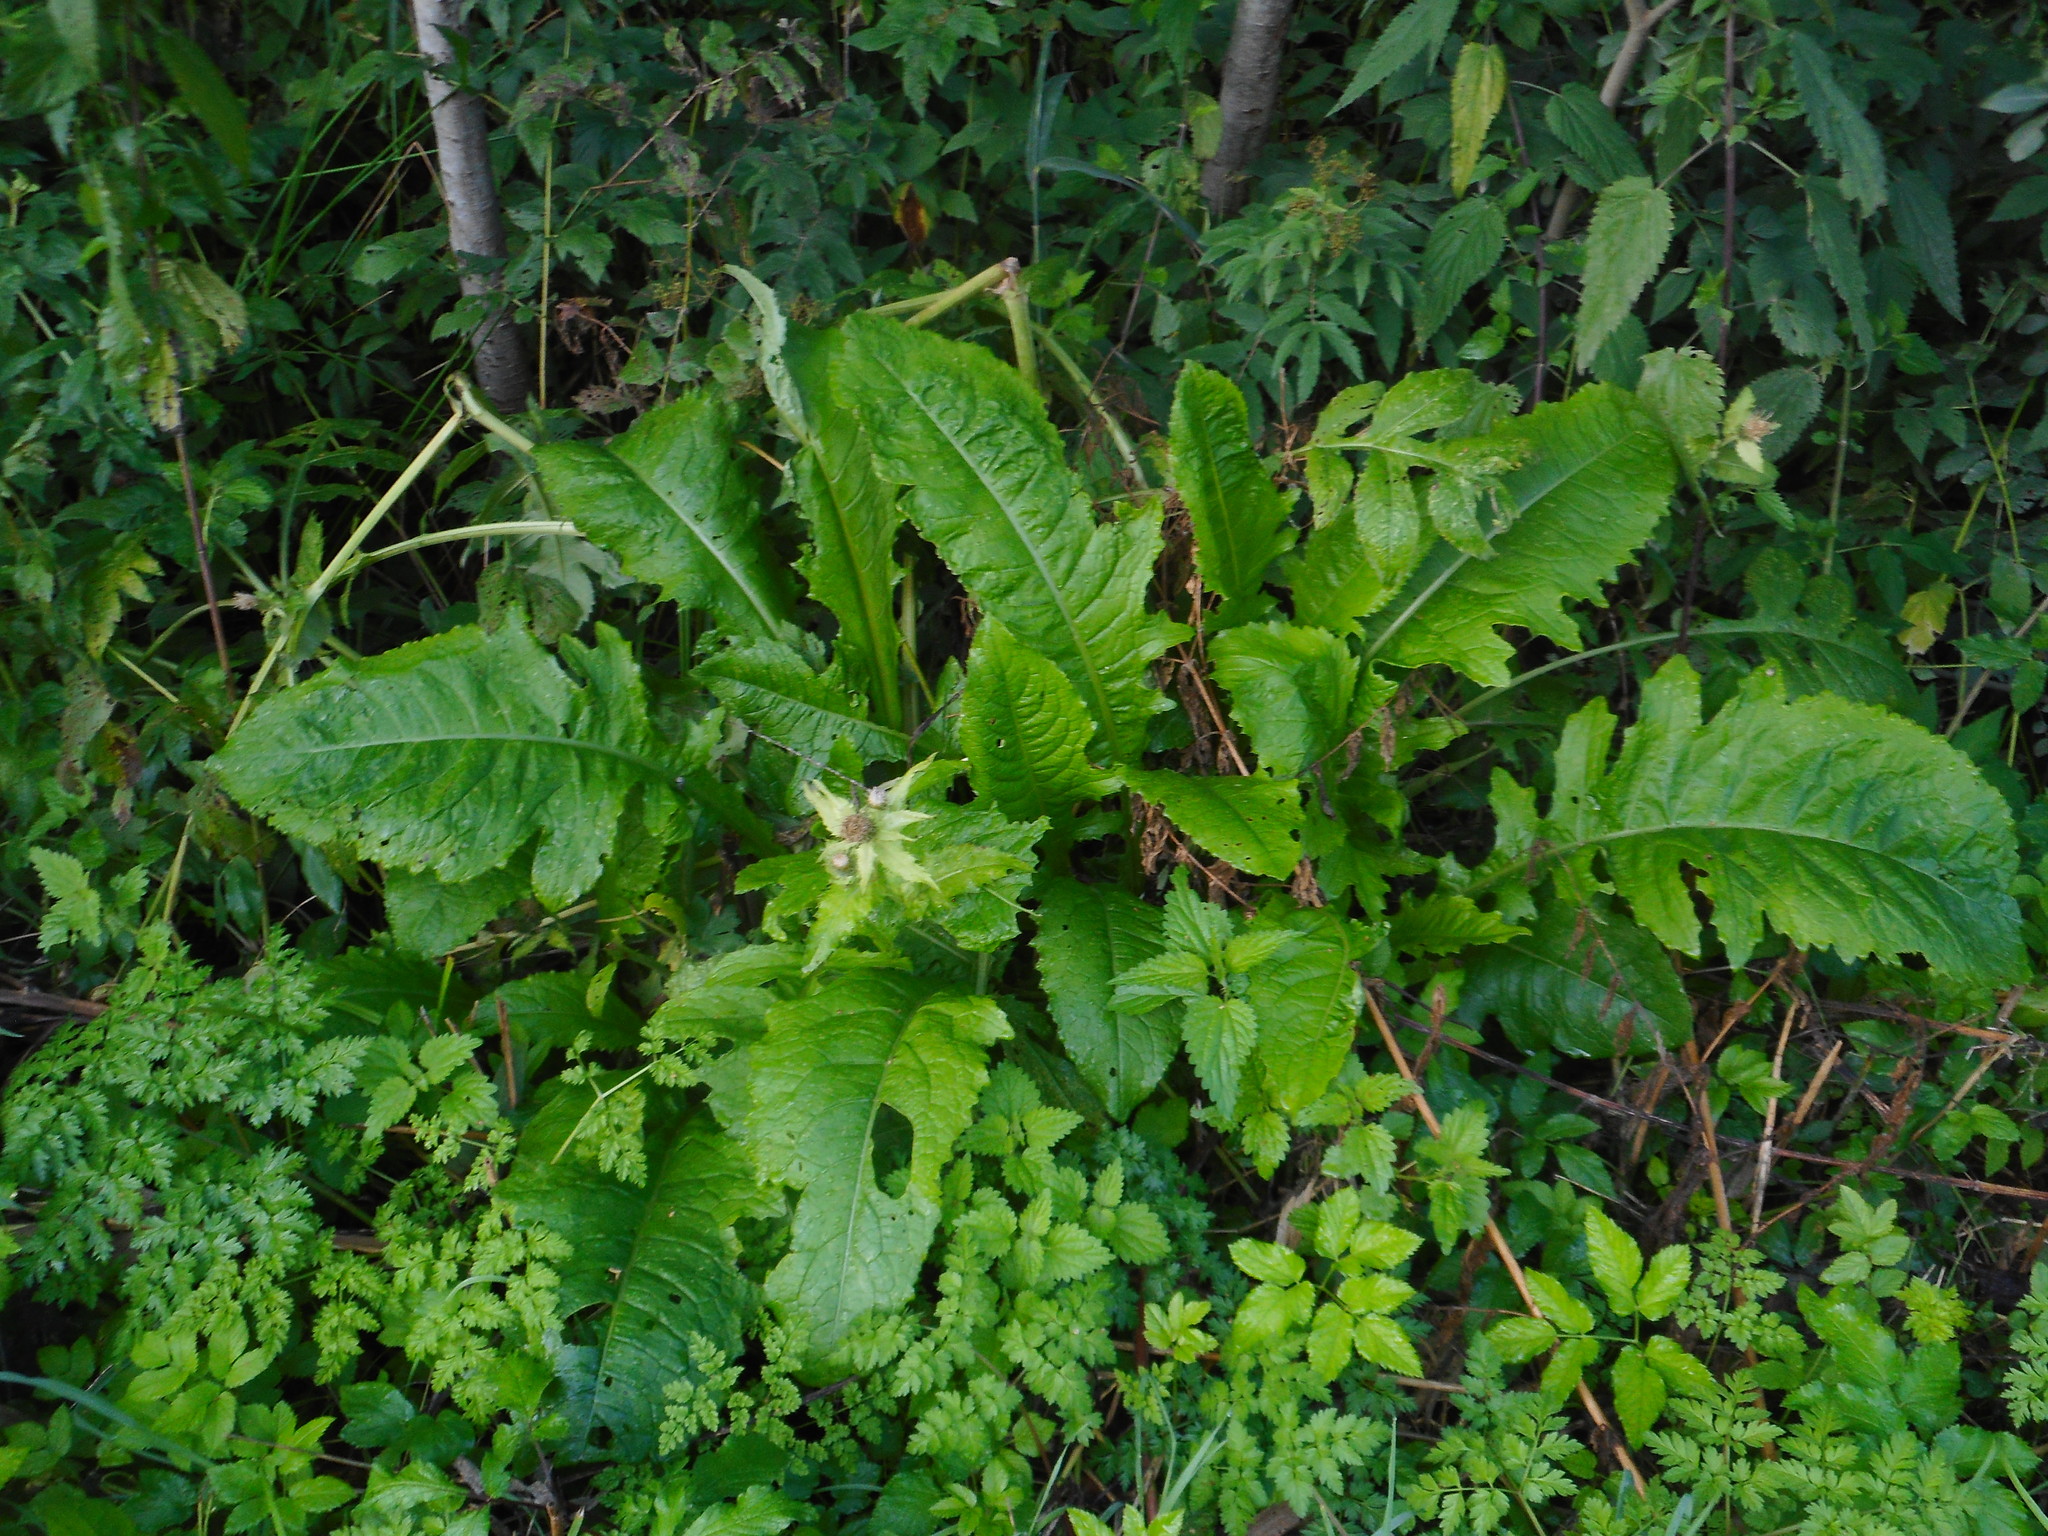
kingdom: Plantae
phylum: Tracheophyta
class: Magnoliopsida
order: Asterales
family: Asteraceae
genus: Cirsium
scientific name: Cirsium oleraceum
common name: Cabbage thistle
